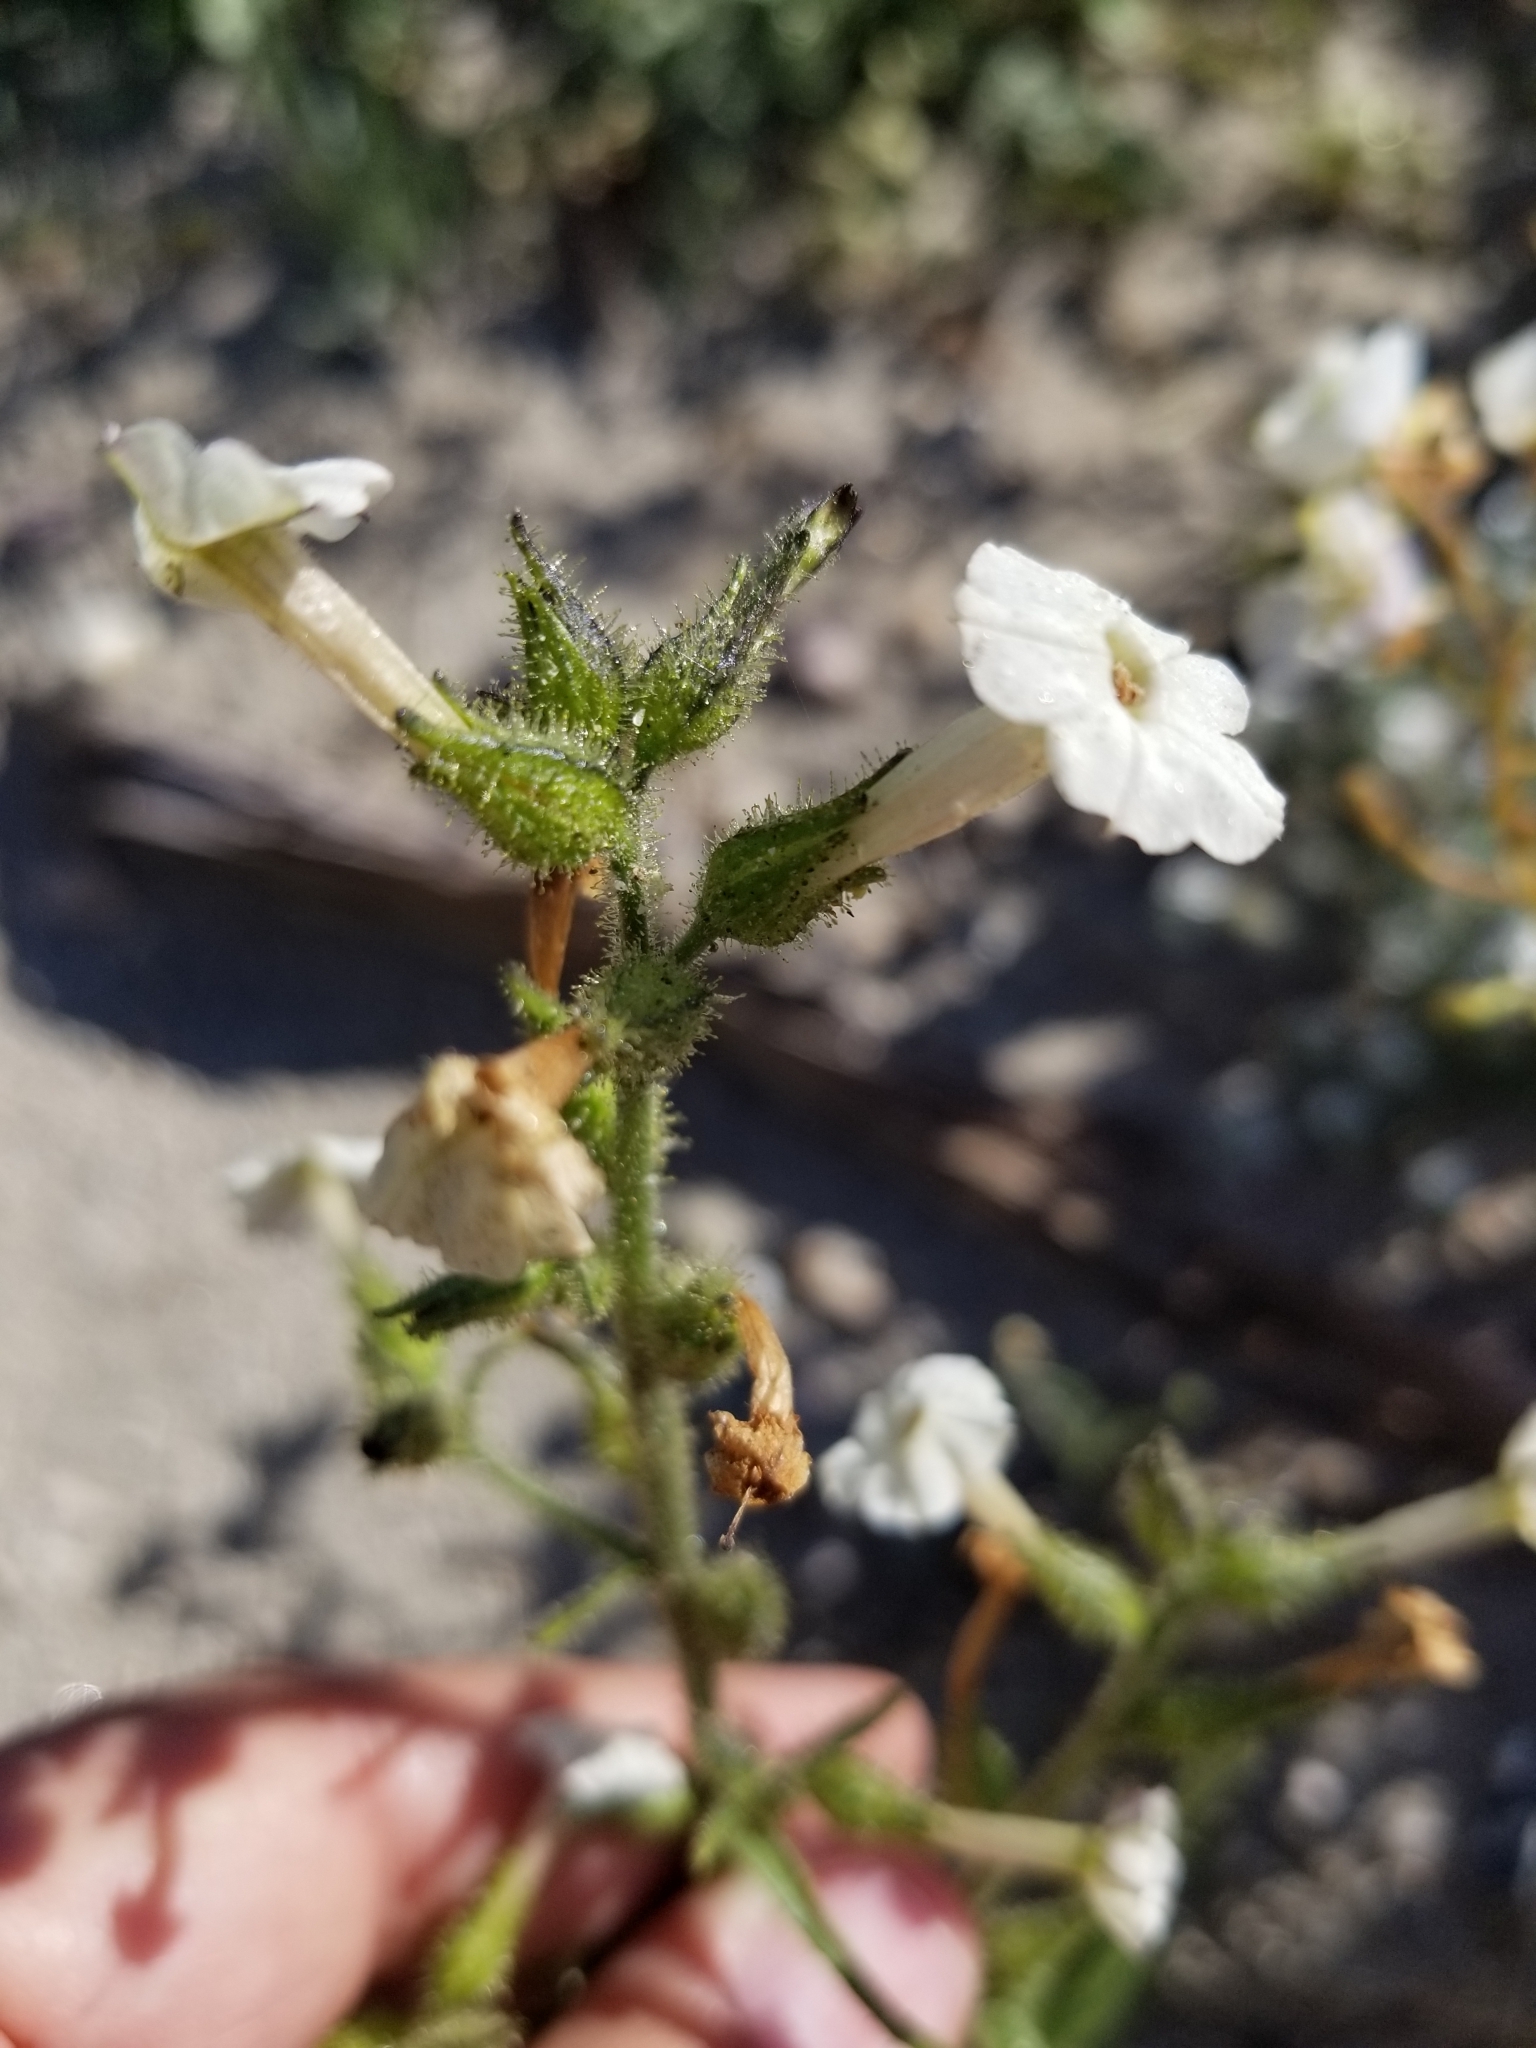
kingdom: Plantae
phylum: Tracheophyta
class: Magnoliopsida
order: Solanales
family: Solanaceae
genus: Nicotiana
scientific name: Nicotiana obtusifolia
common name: Desert tobacco
